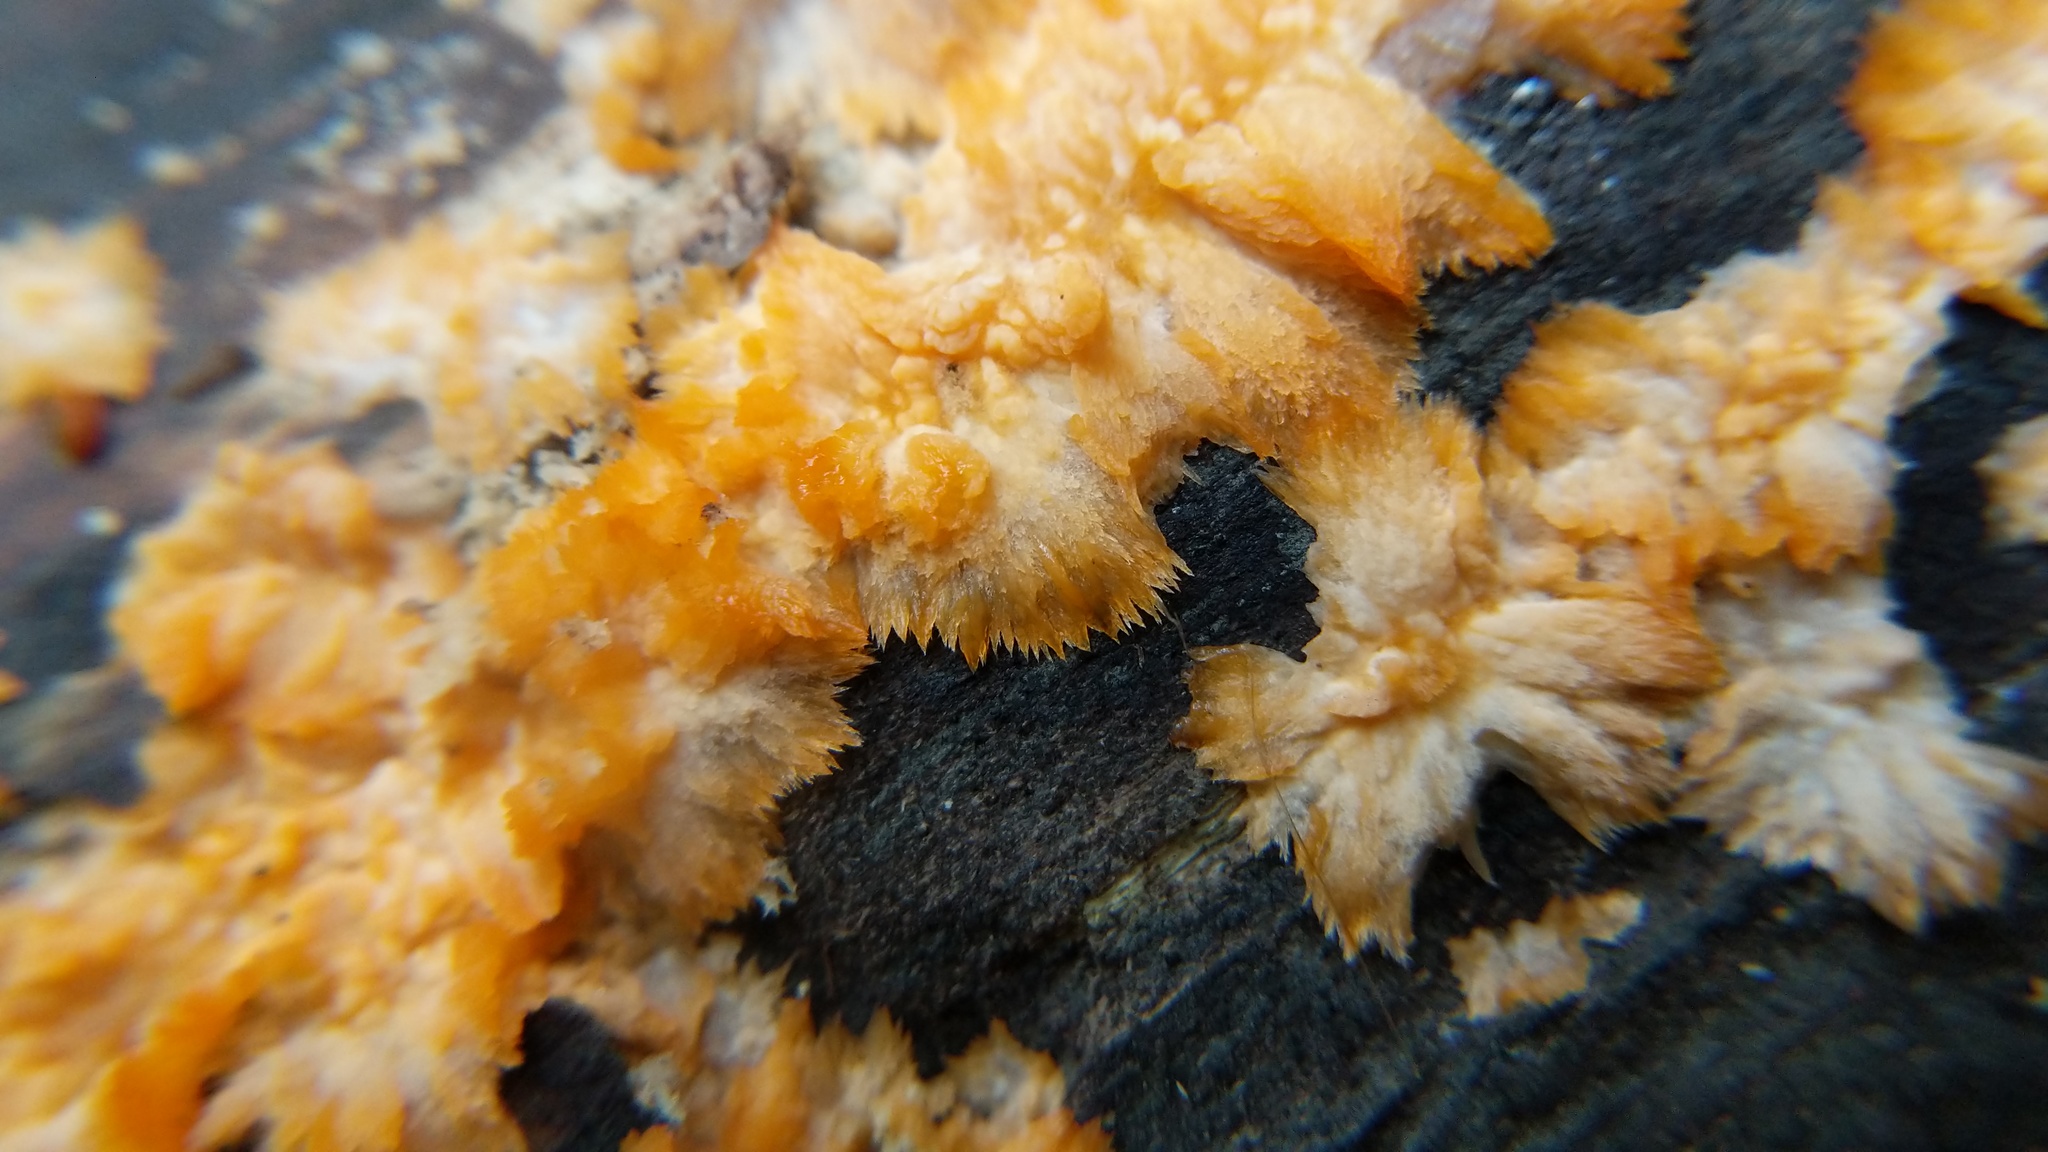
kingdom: Fungi
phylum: Basidiomycota
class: Agaricomycetes
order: Polyporales
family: Meruliaceae
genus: Phlebia
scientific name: Phlebia radiata
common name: Wrinkled crust
